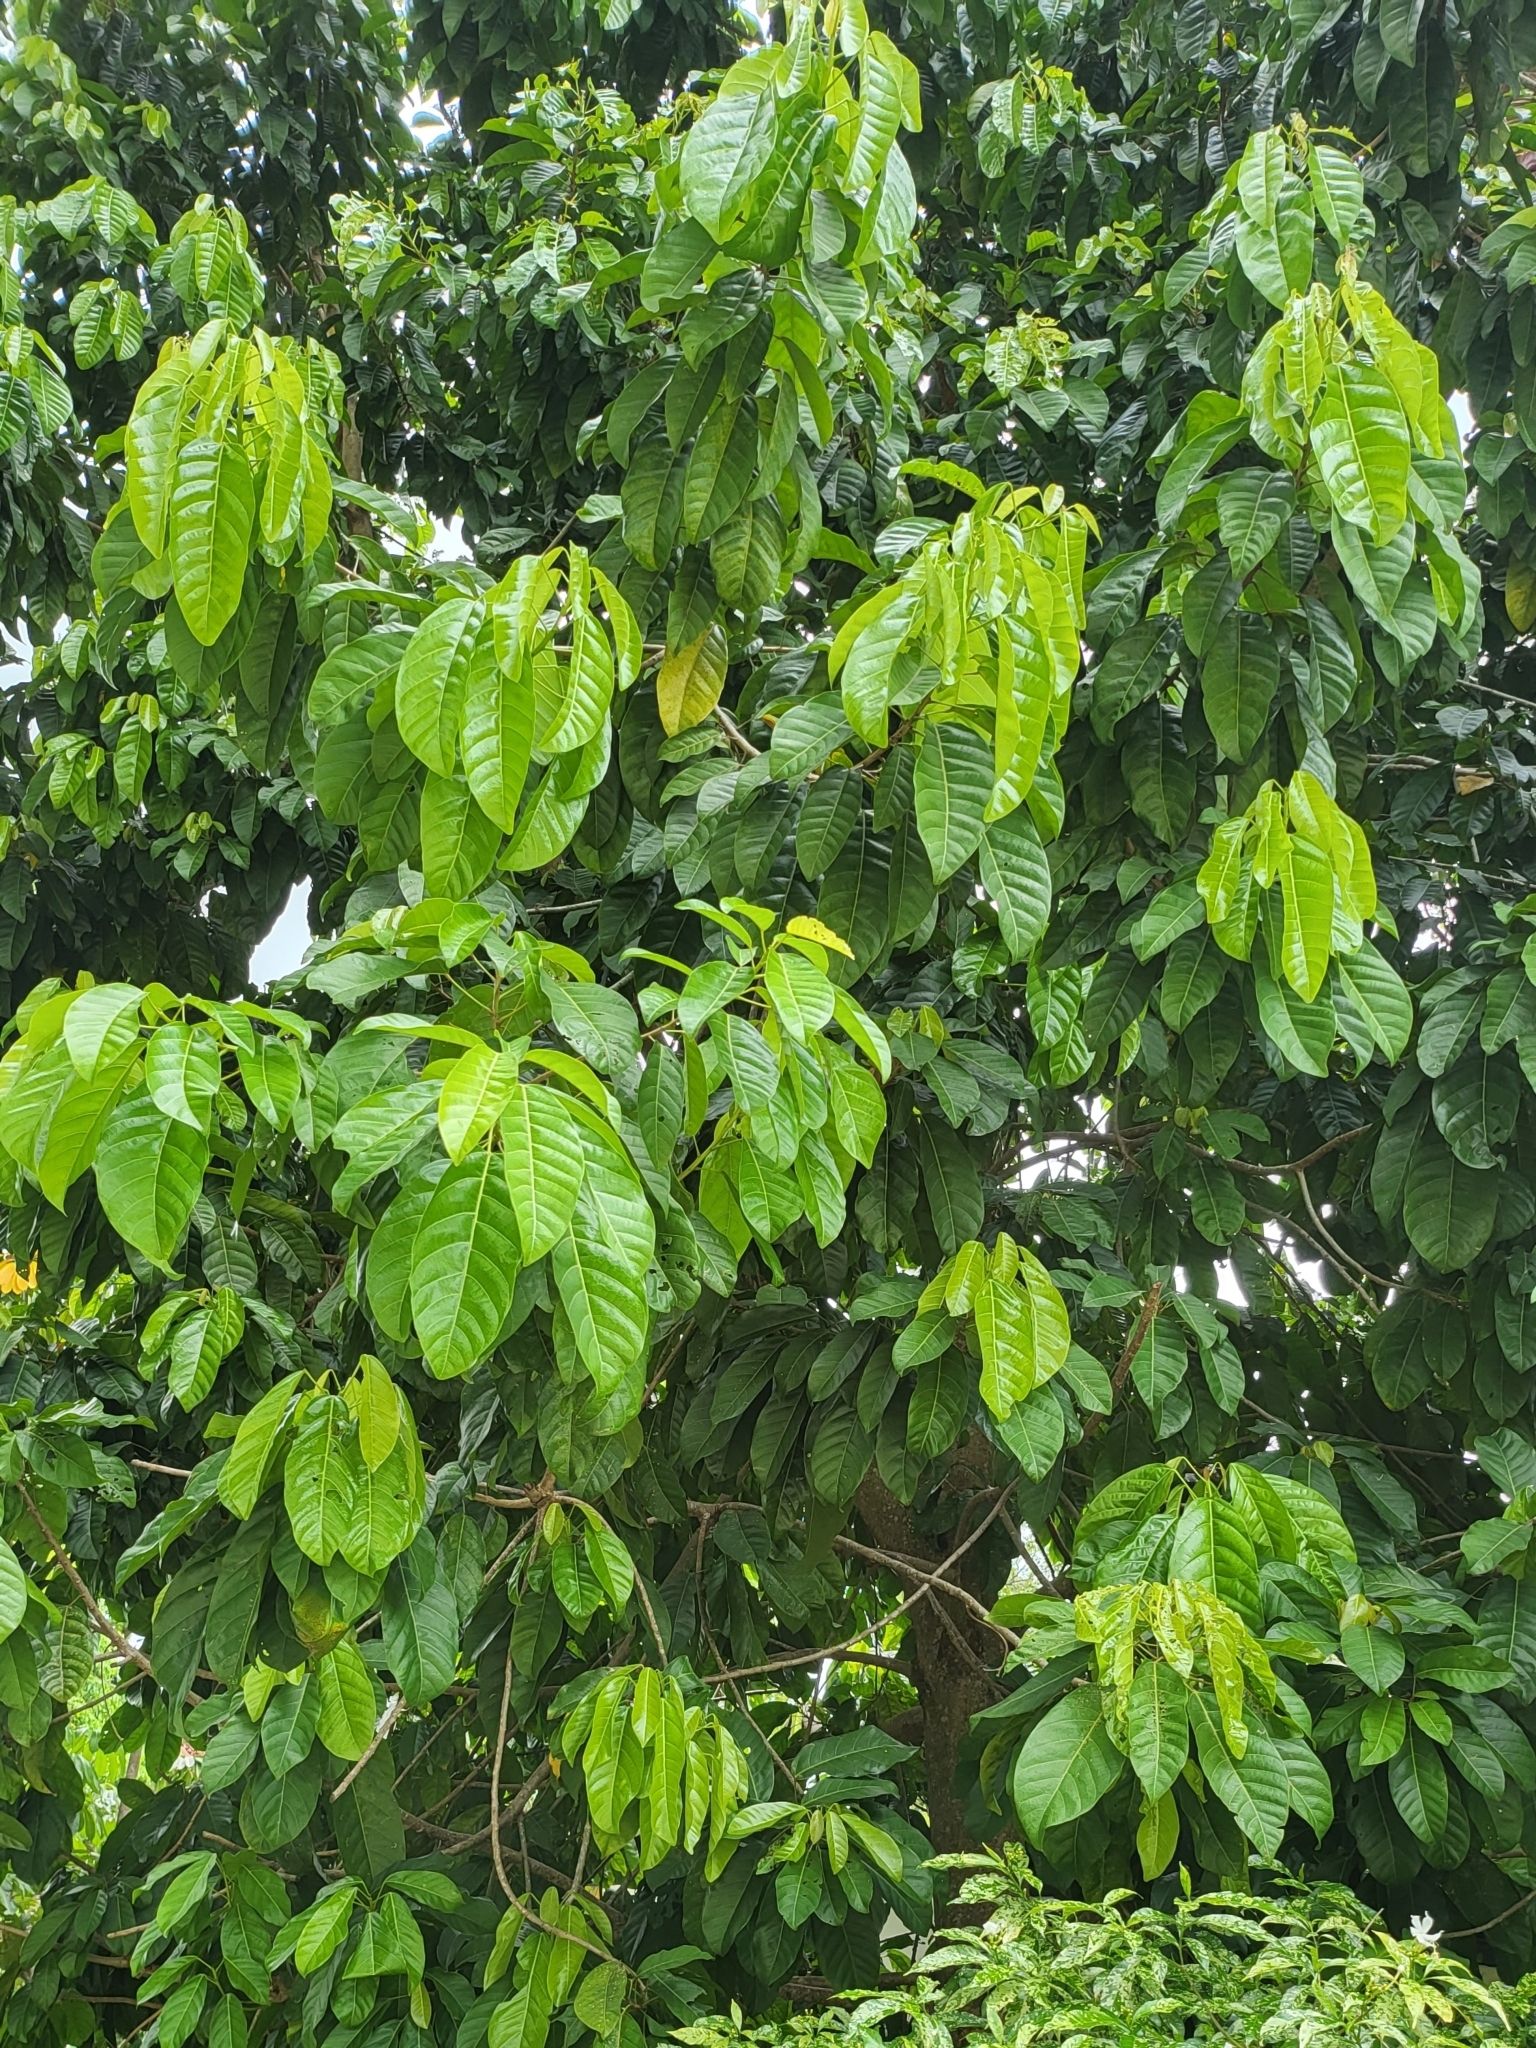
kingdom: Plantae
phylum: Tracheophyta
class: Magnoliopsida
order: Malvales
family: Malvaceae
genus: Sterculia
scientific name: Sterculia parviflora
